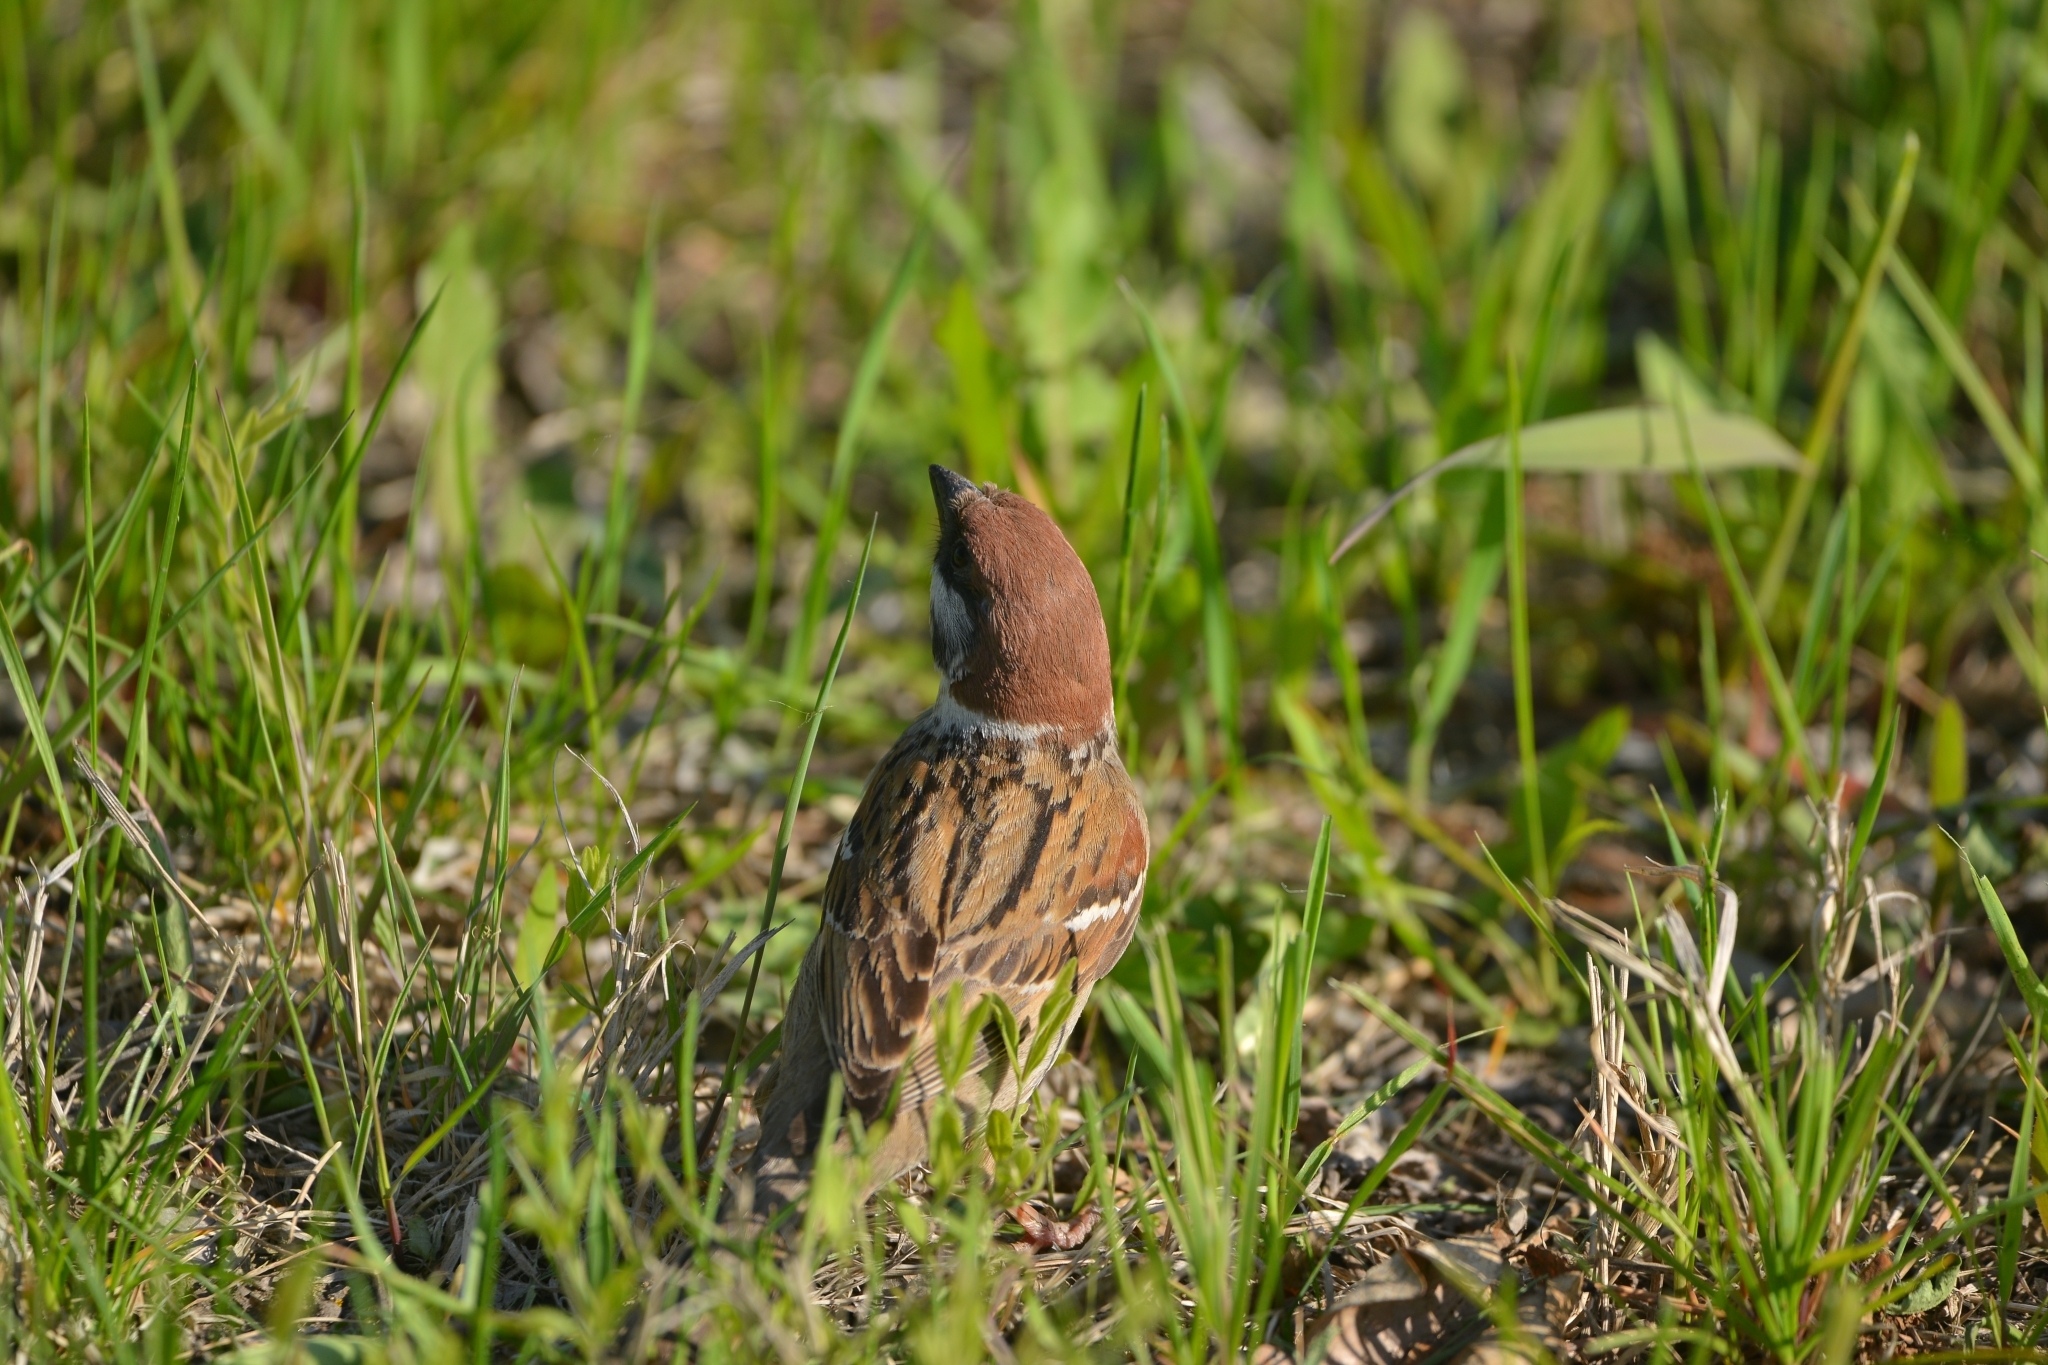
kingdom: Animalia
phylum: Chordata
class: Aves
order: Passeriformes
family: Passeridae
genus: Passer
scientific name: Passer montanus
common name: Eurasian tree sparrow
